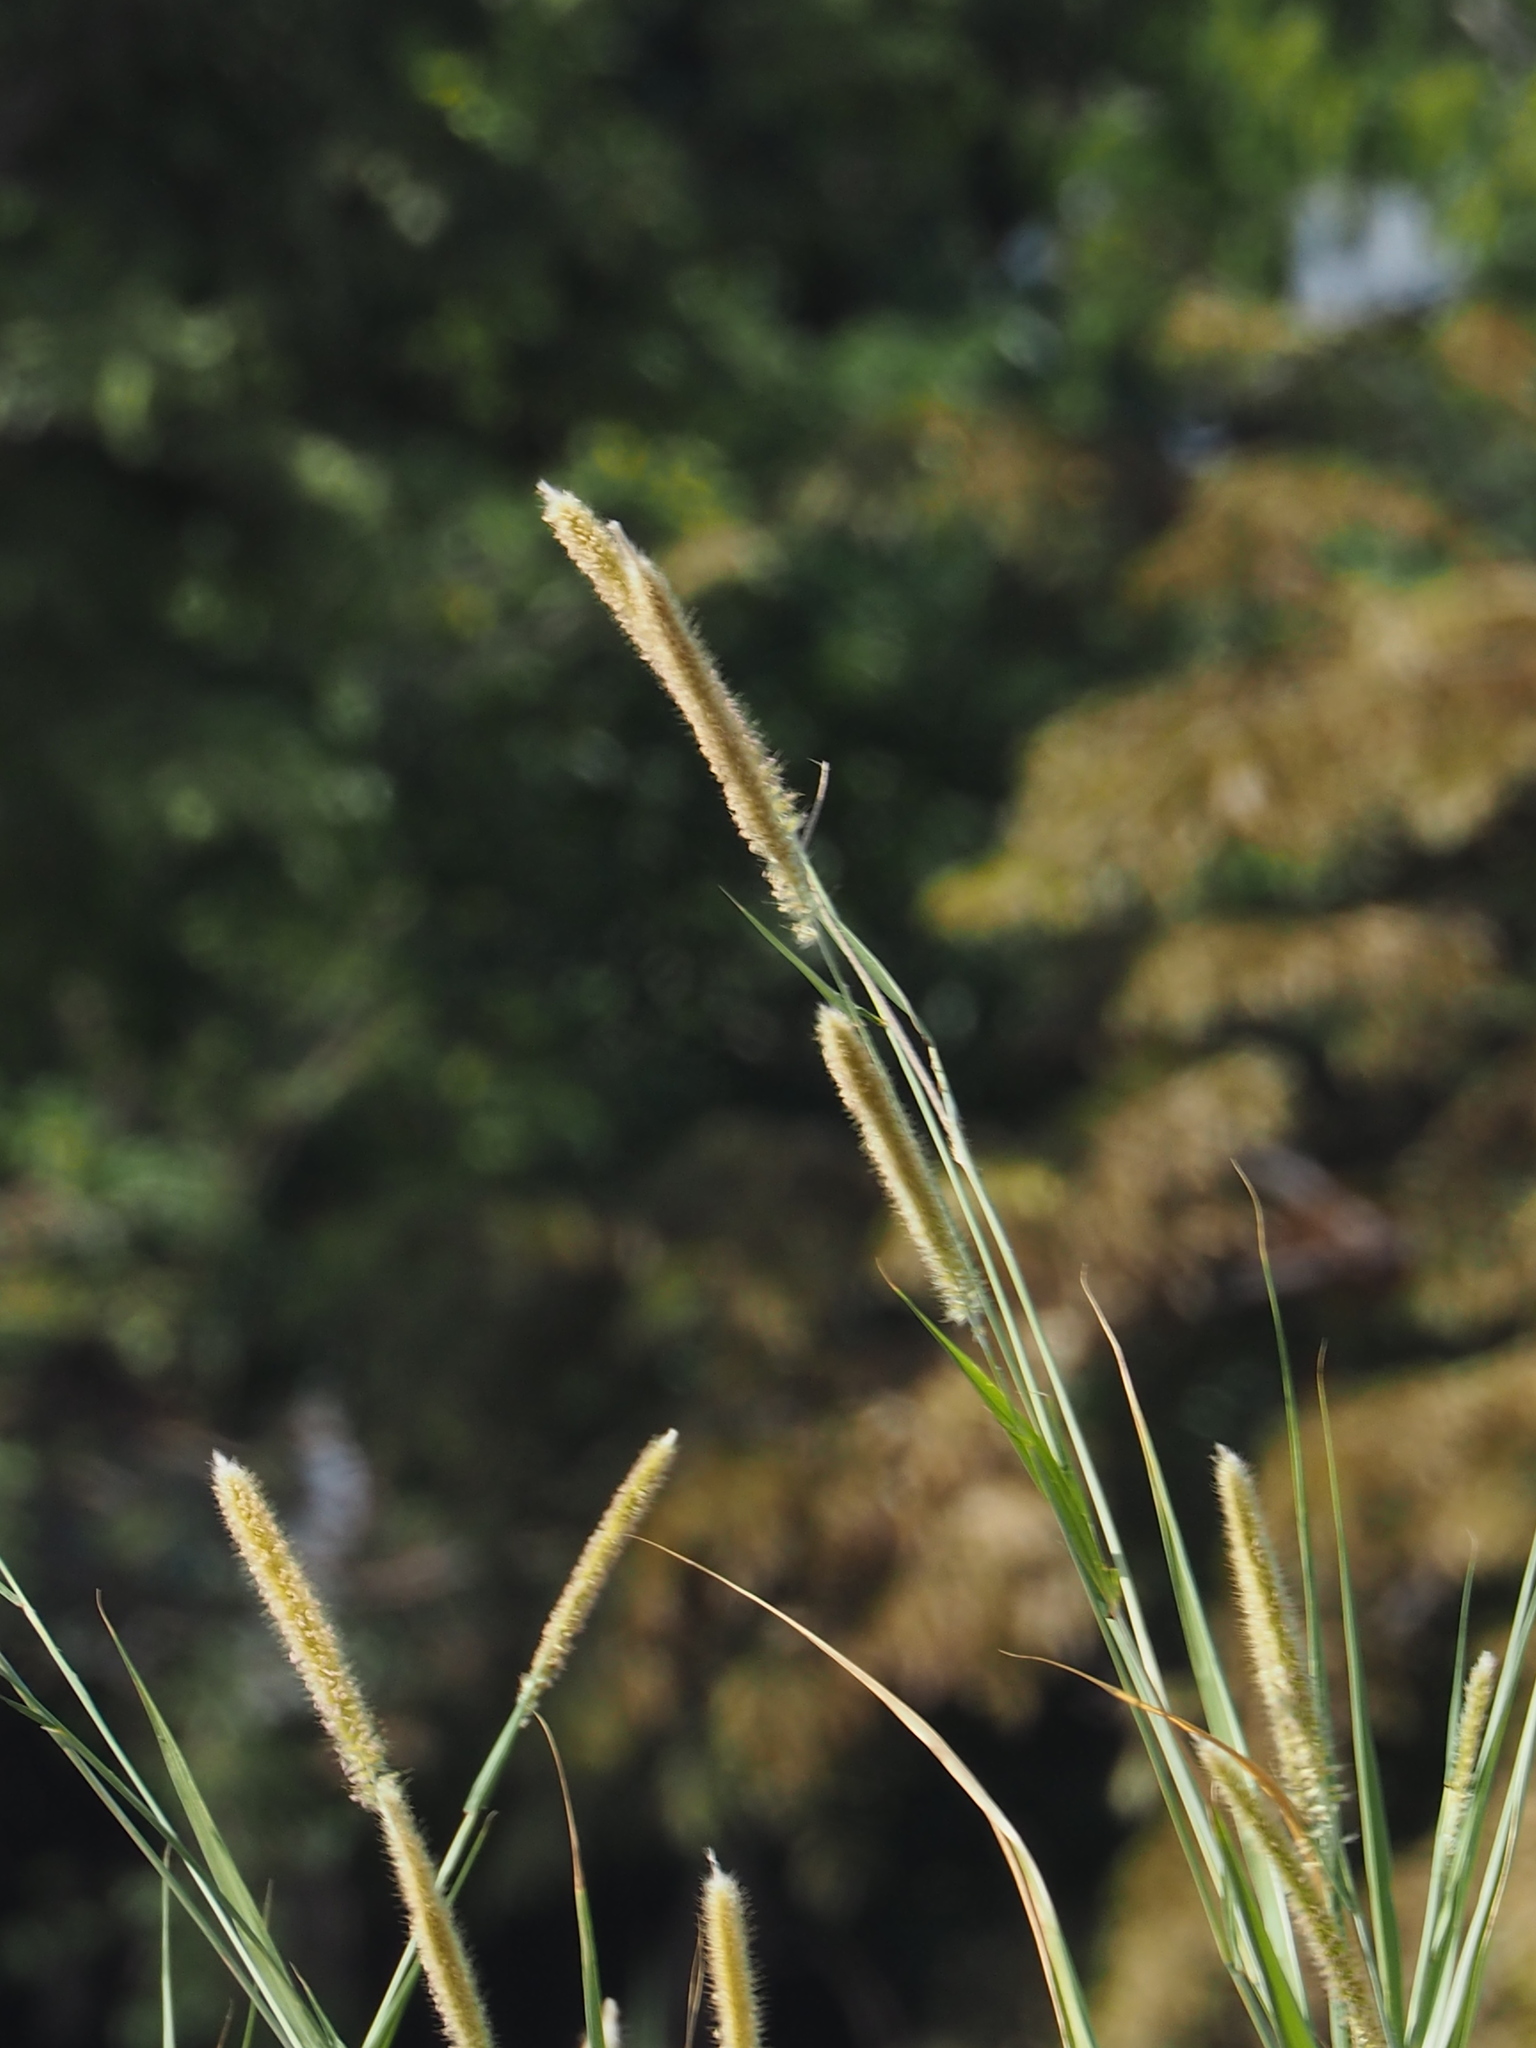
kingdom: Plantae
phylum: Tracheophyta
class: Liliopsida
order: Poales
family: Poaceae
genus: Cenchrus
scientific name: Cenchrus purpureus
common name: Elephant grass
